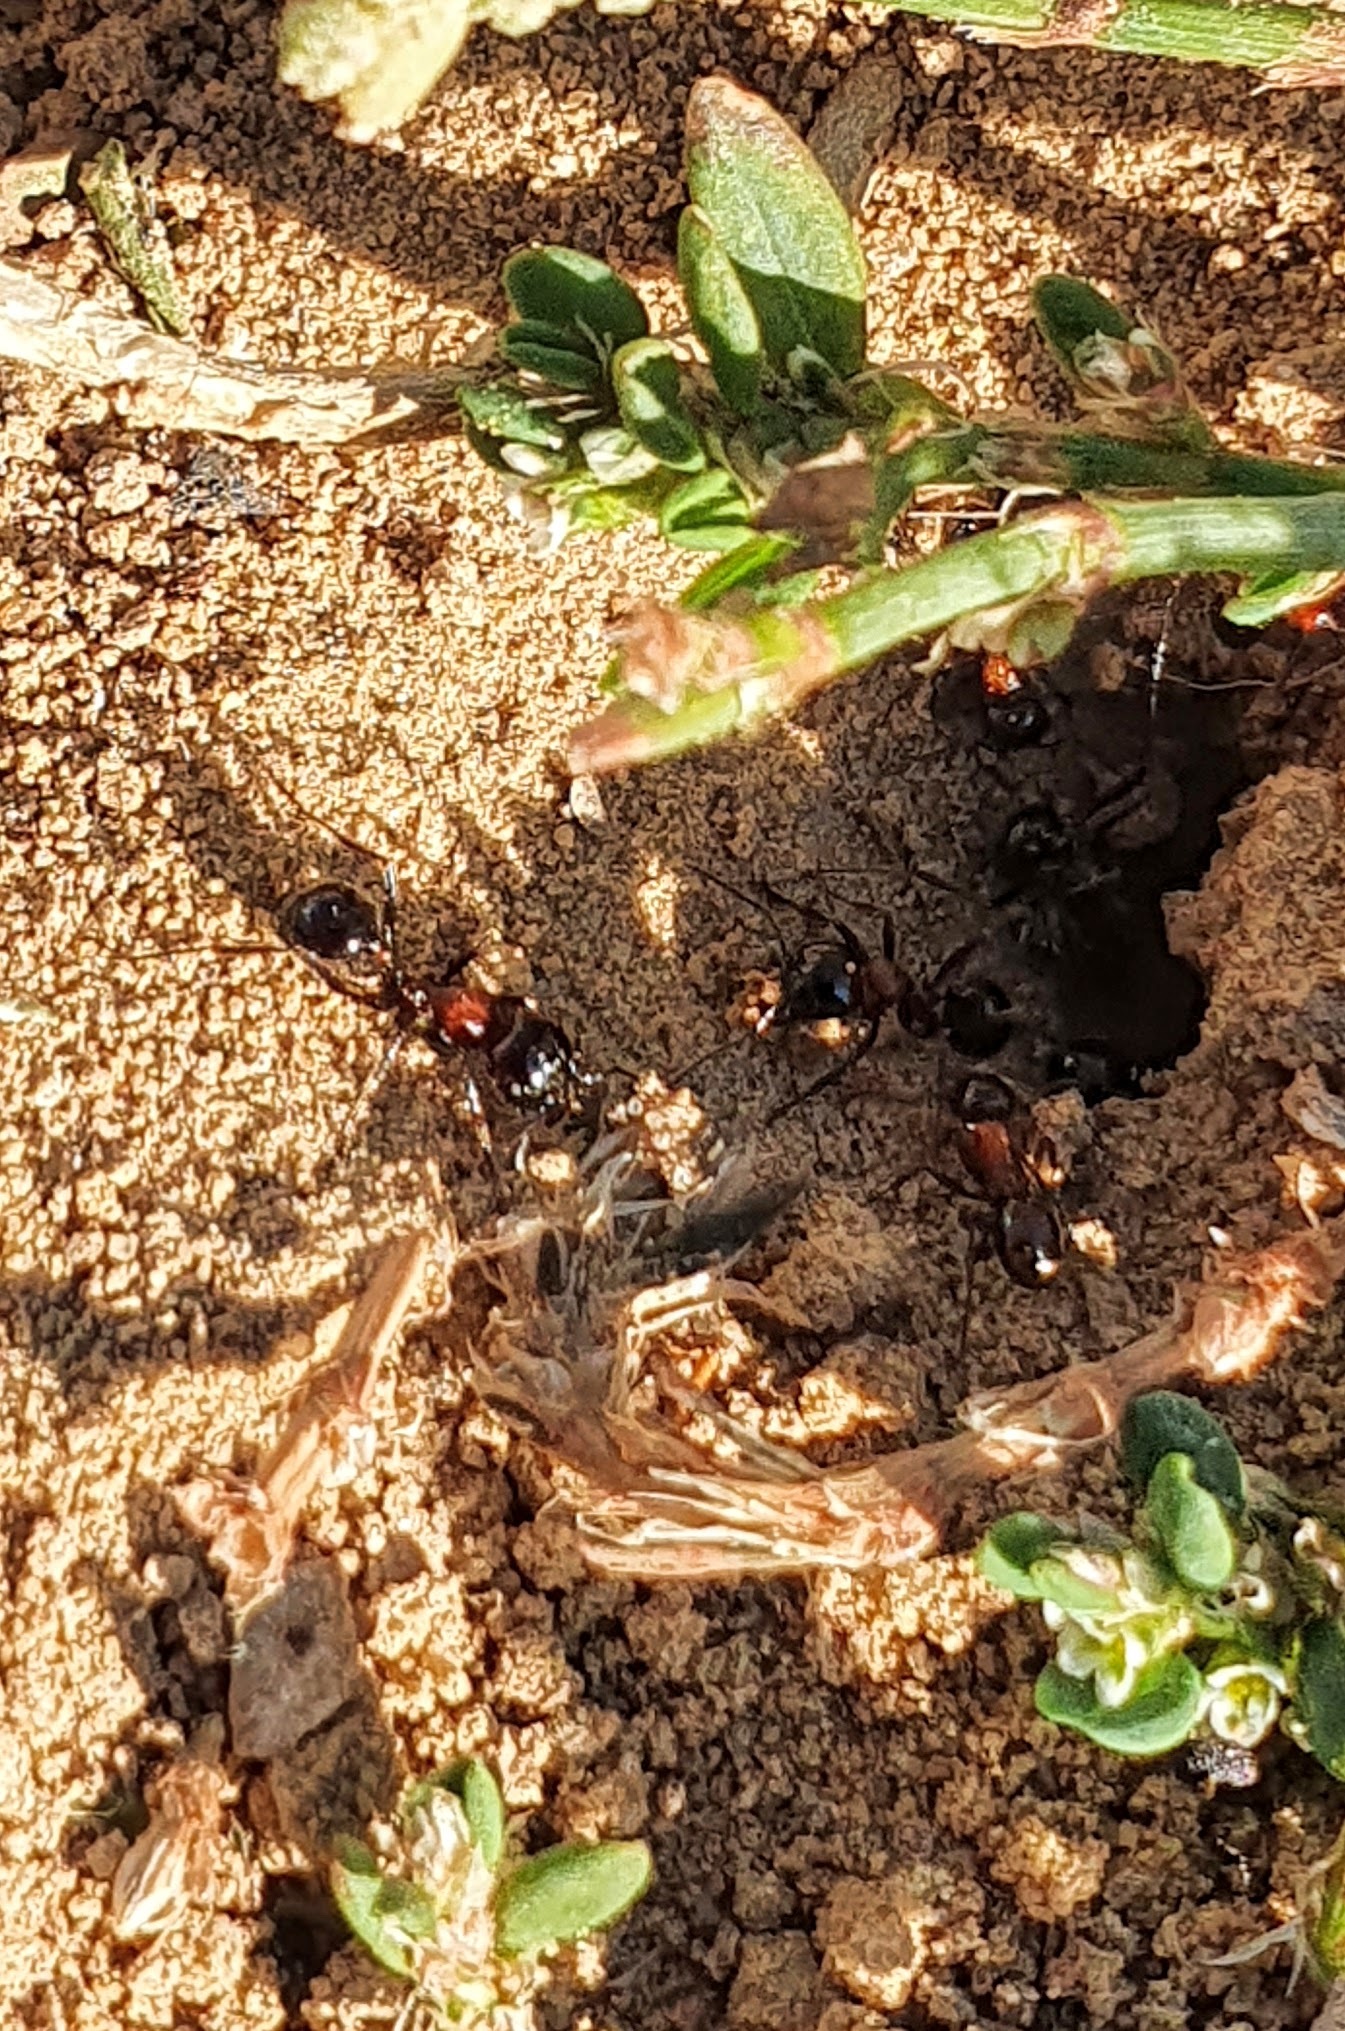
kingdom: Animalia
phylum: Arthropoda
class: Insecta
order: Hymenoptera
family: Formicidae
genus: Messor
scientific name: Messor denticulatus
